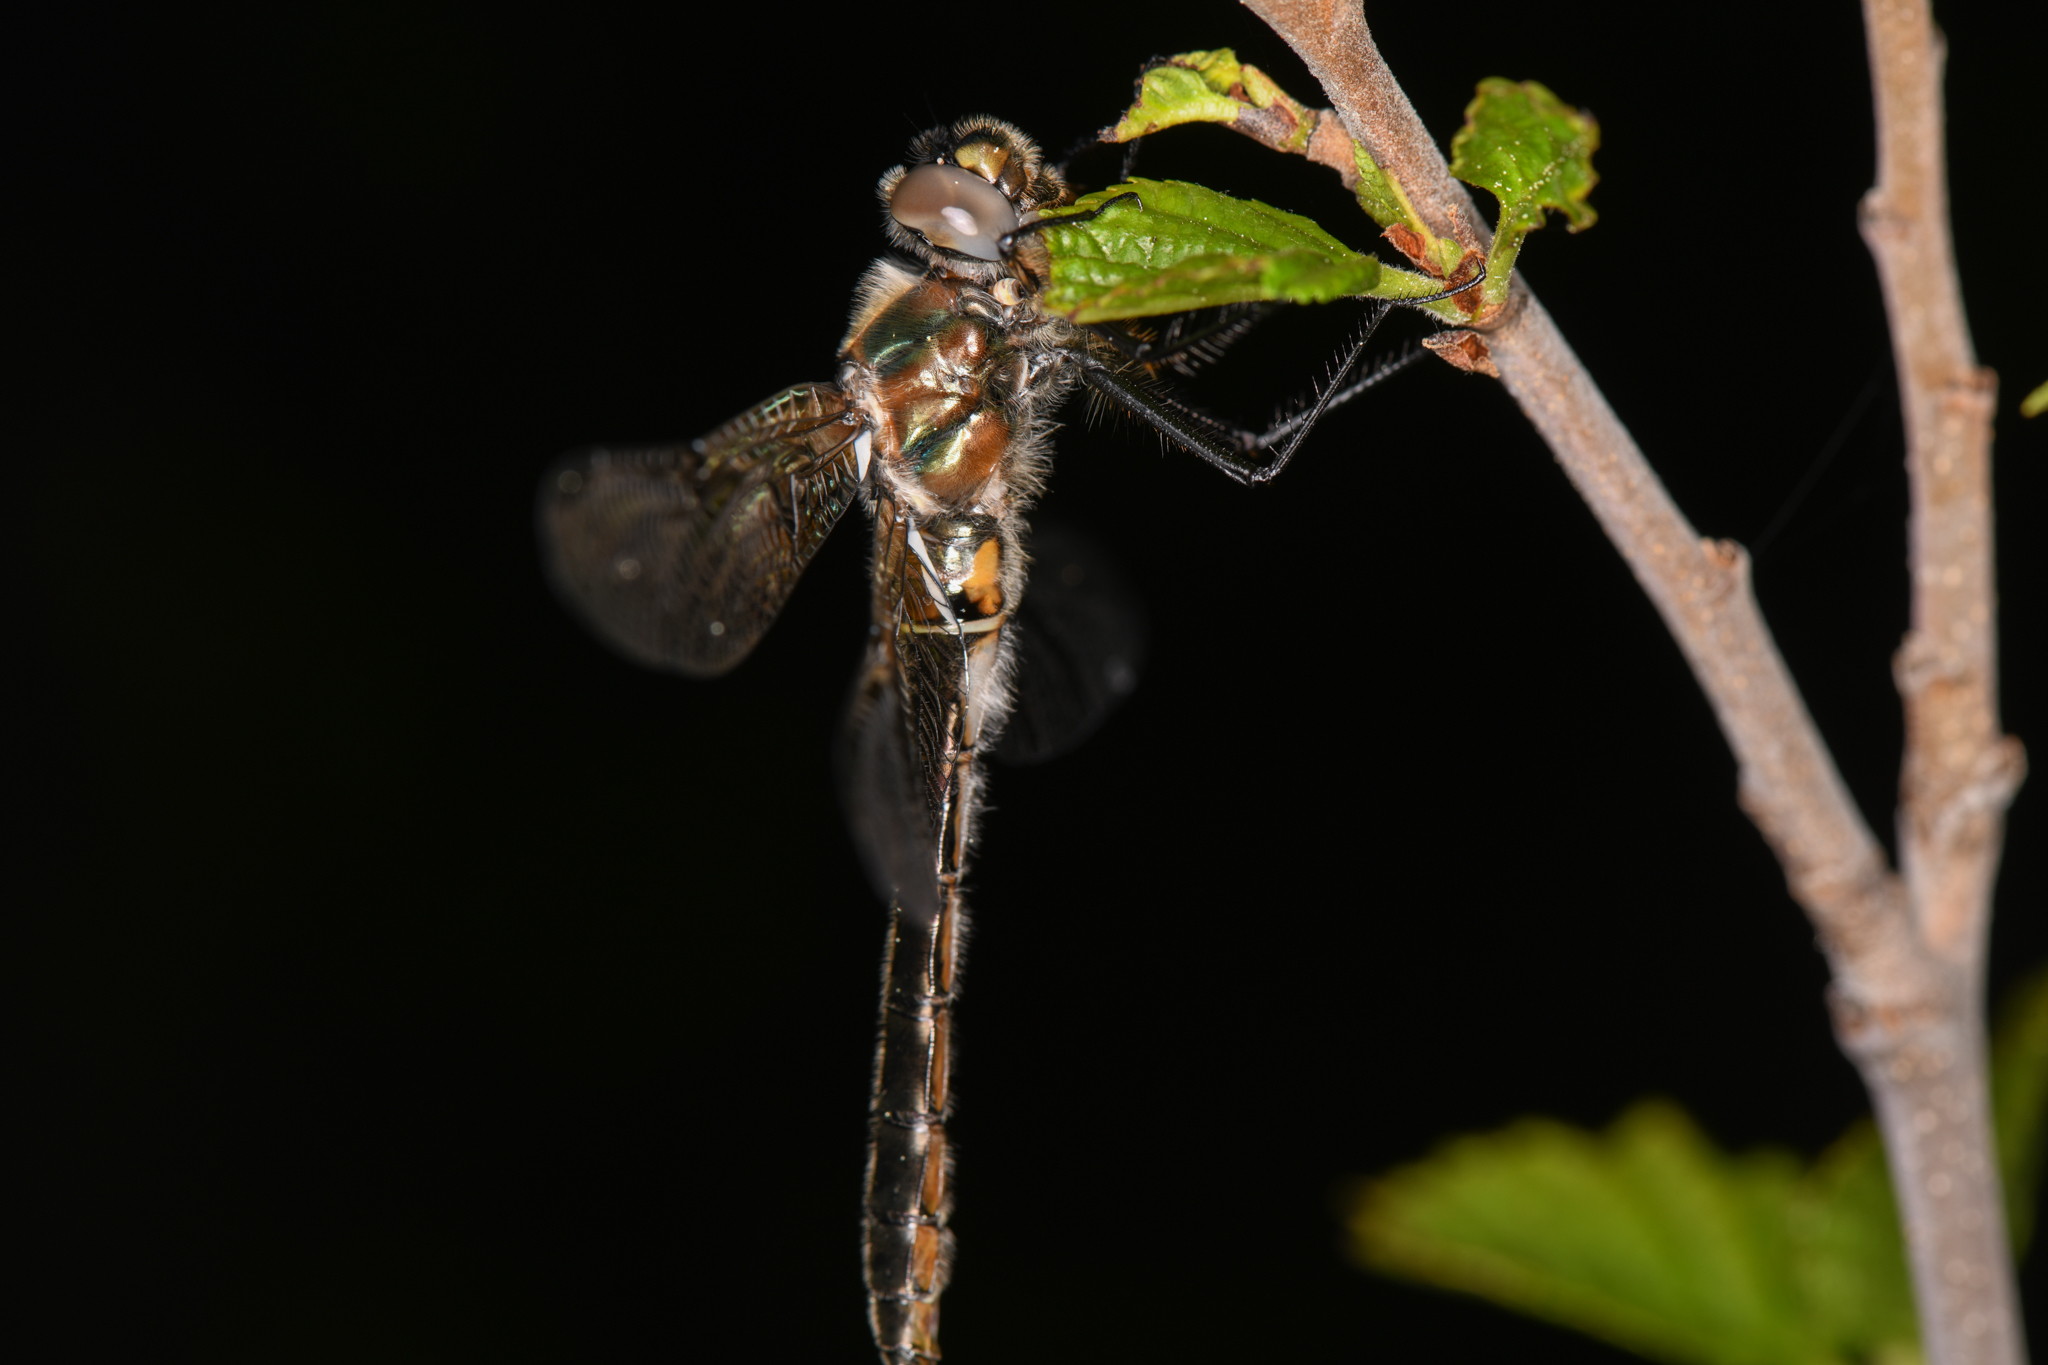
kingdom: Animalia
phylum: Arthropoda
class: Insecta
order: Odonata
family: Corduliidae
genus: Cordulia
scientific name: Cordulia shurtleffii
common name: American emerald
